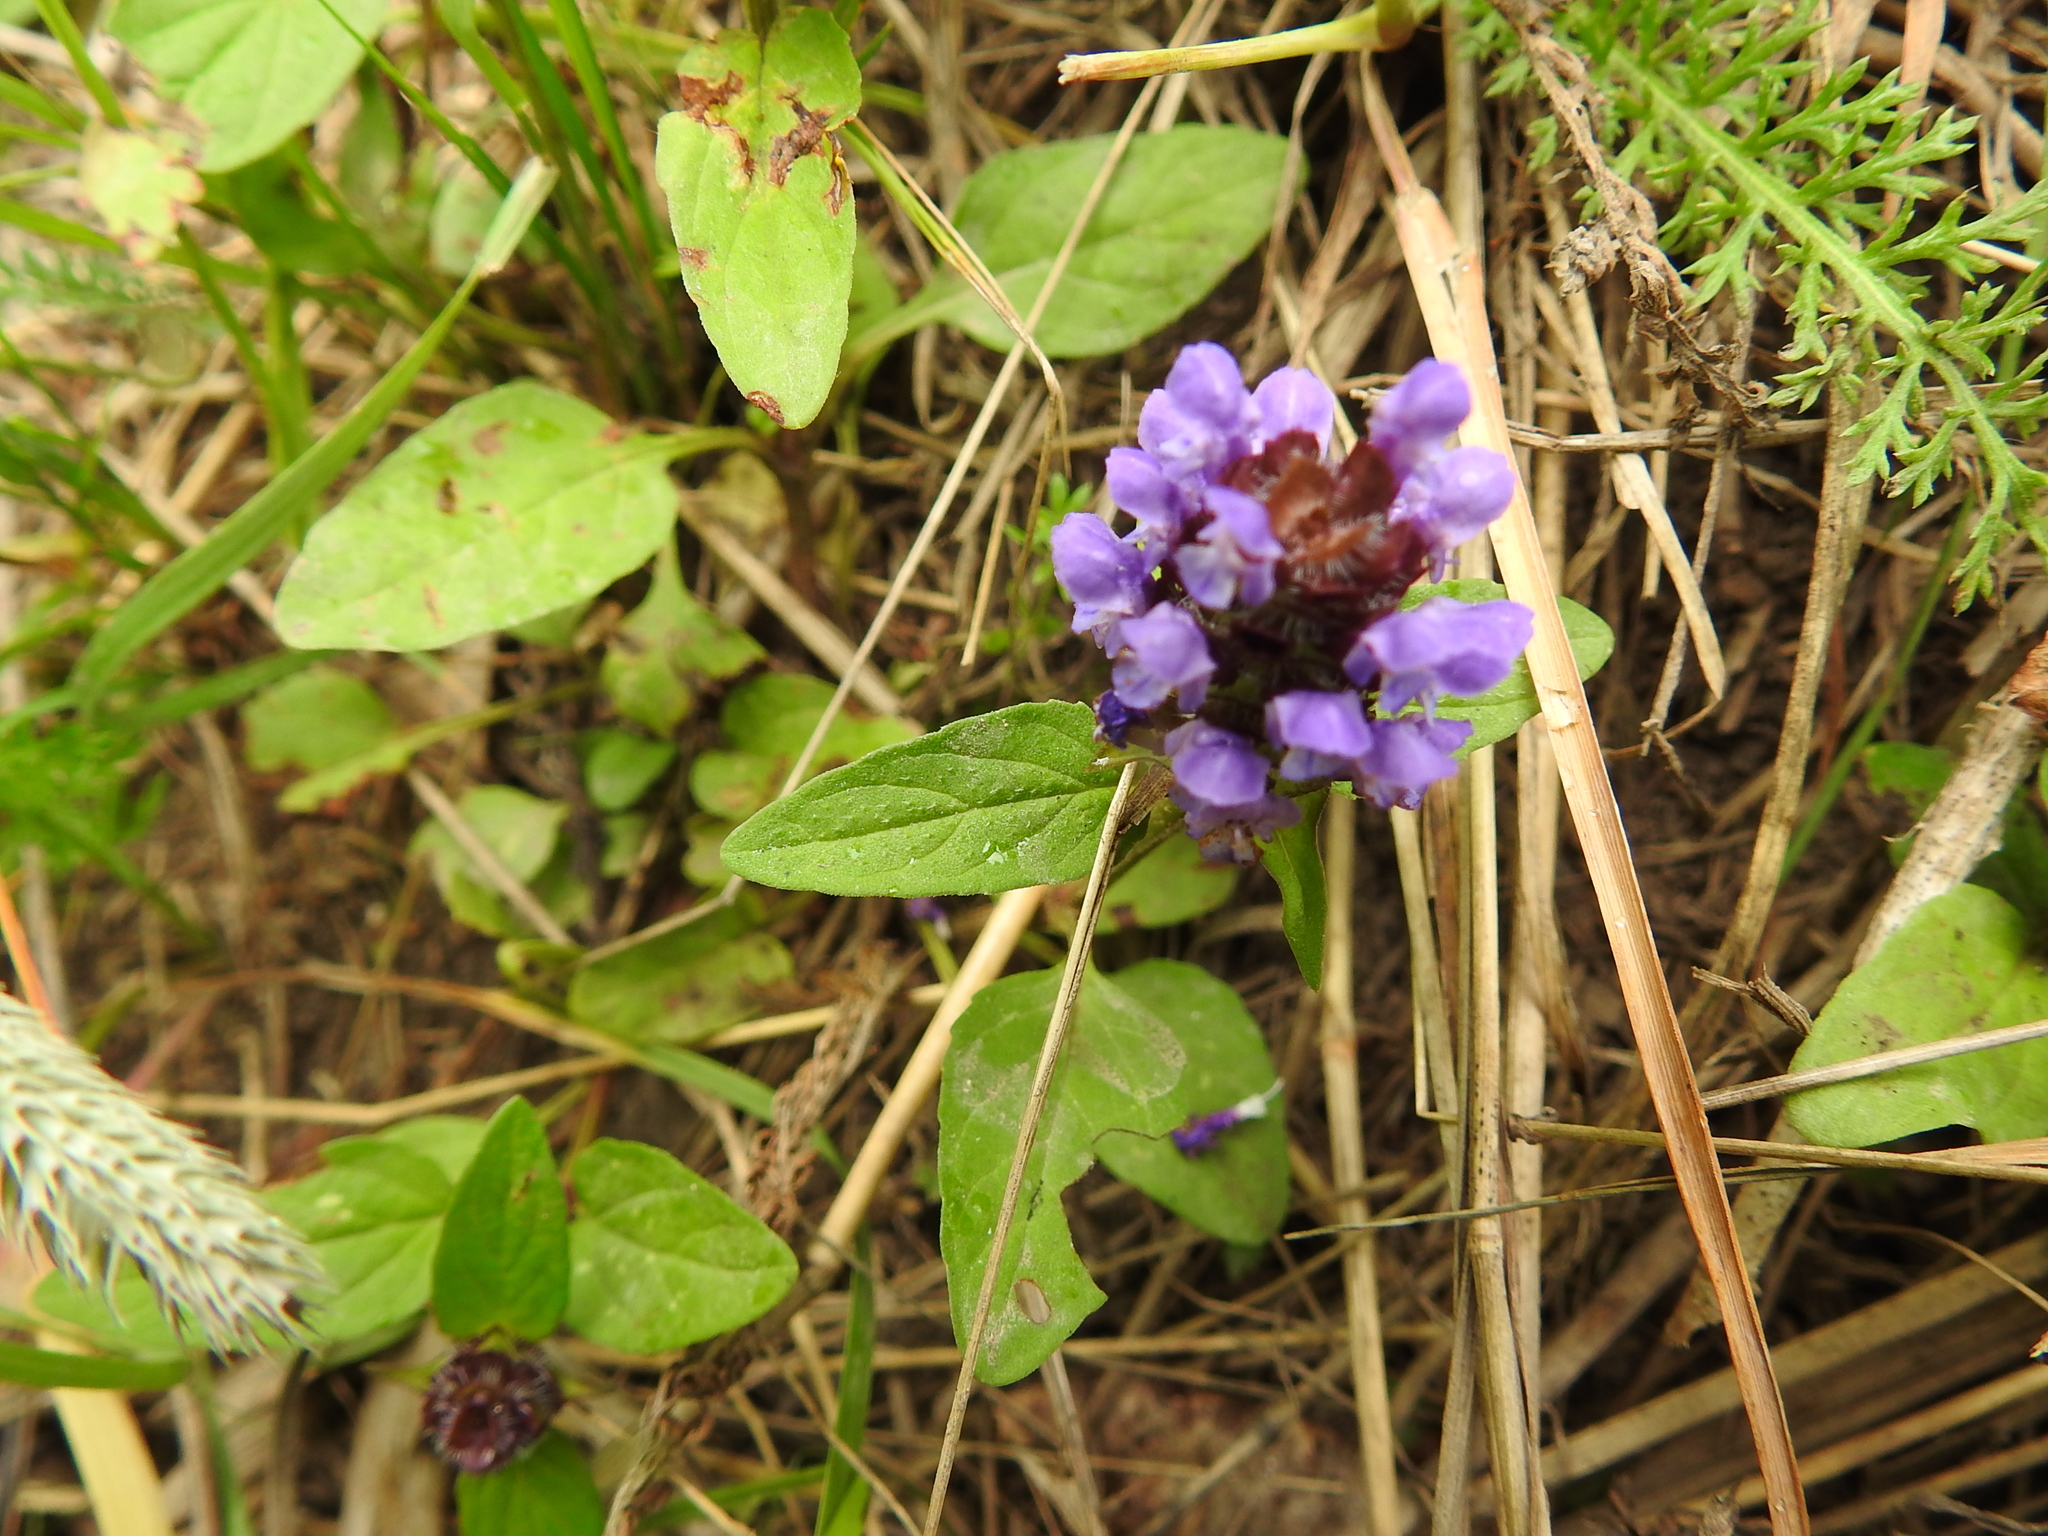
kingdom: Plantae
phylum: Tracheophyta
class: Magnoliopsida
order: Lamiales
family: Lamiaceae
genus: Prunella
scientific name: Prunella vulgaris
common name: Heal-all
